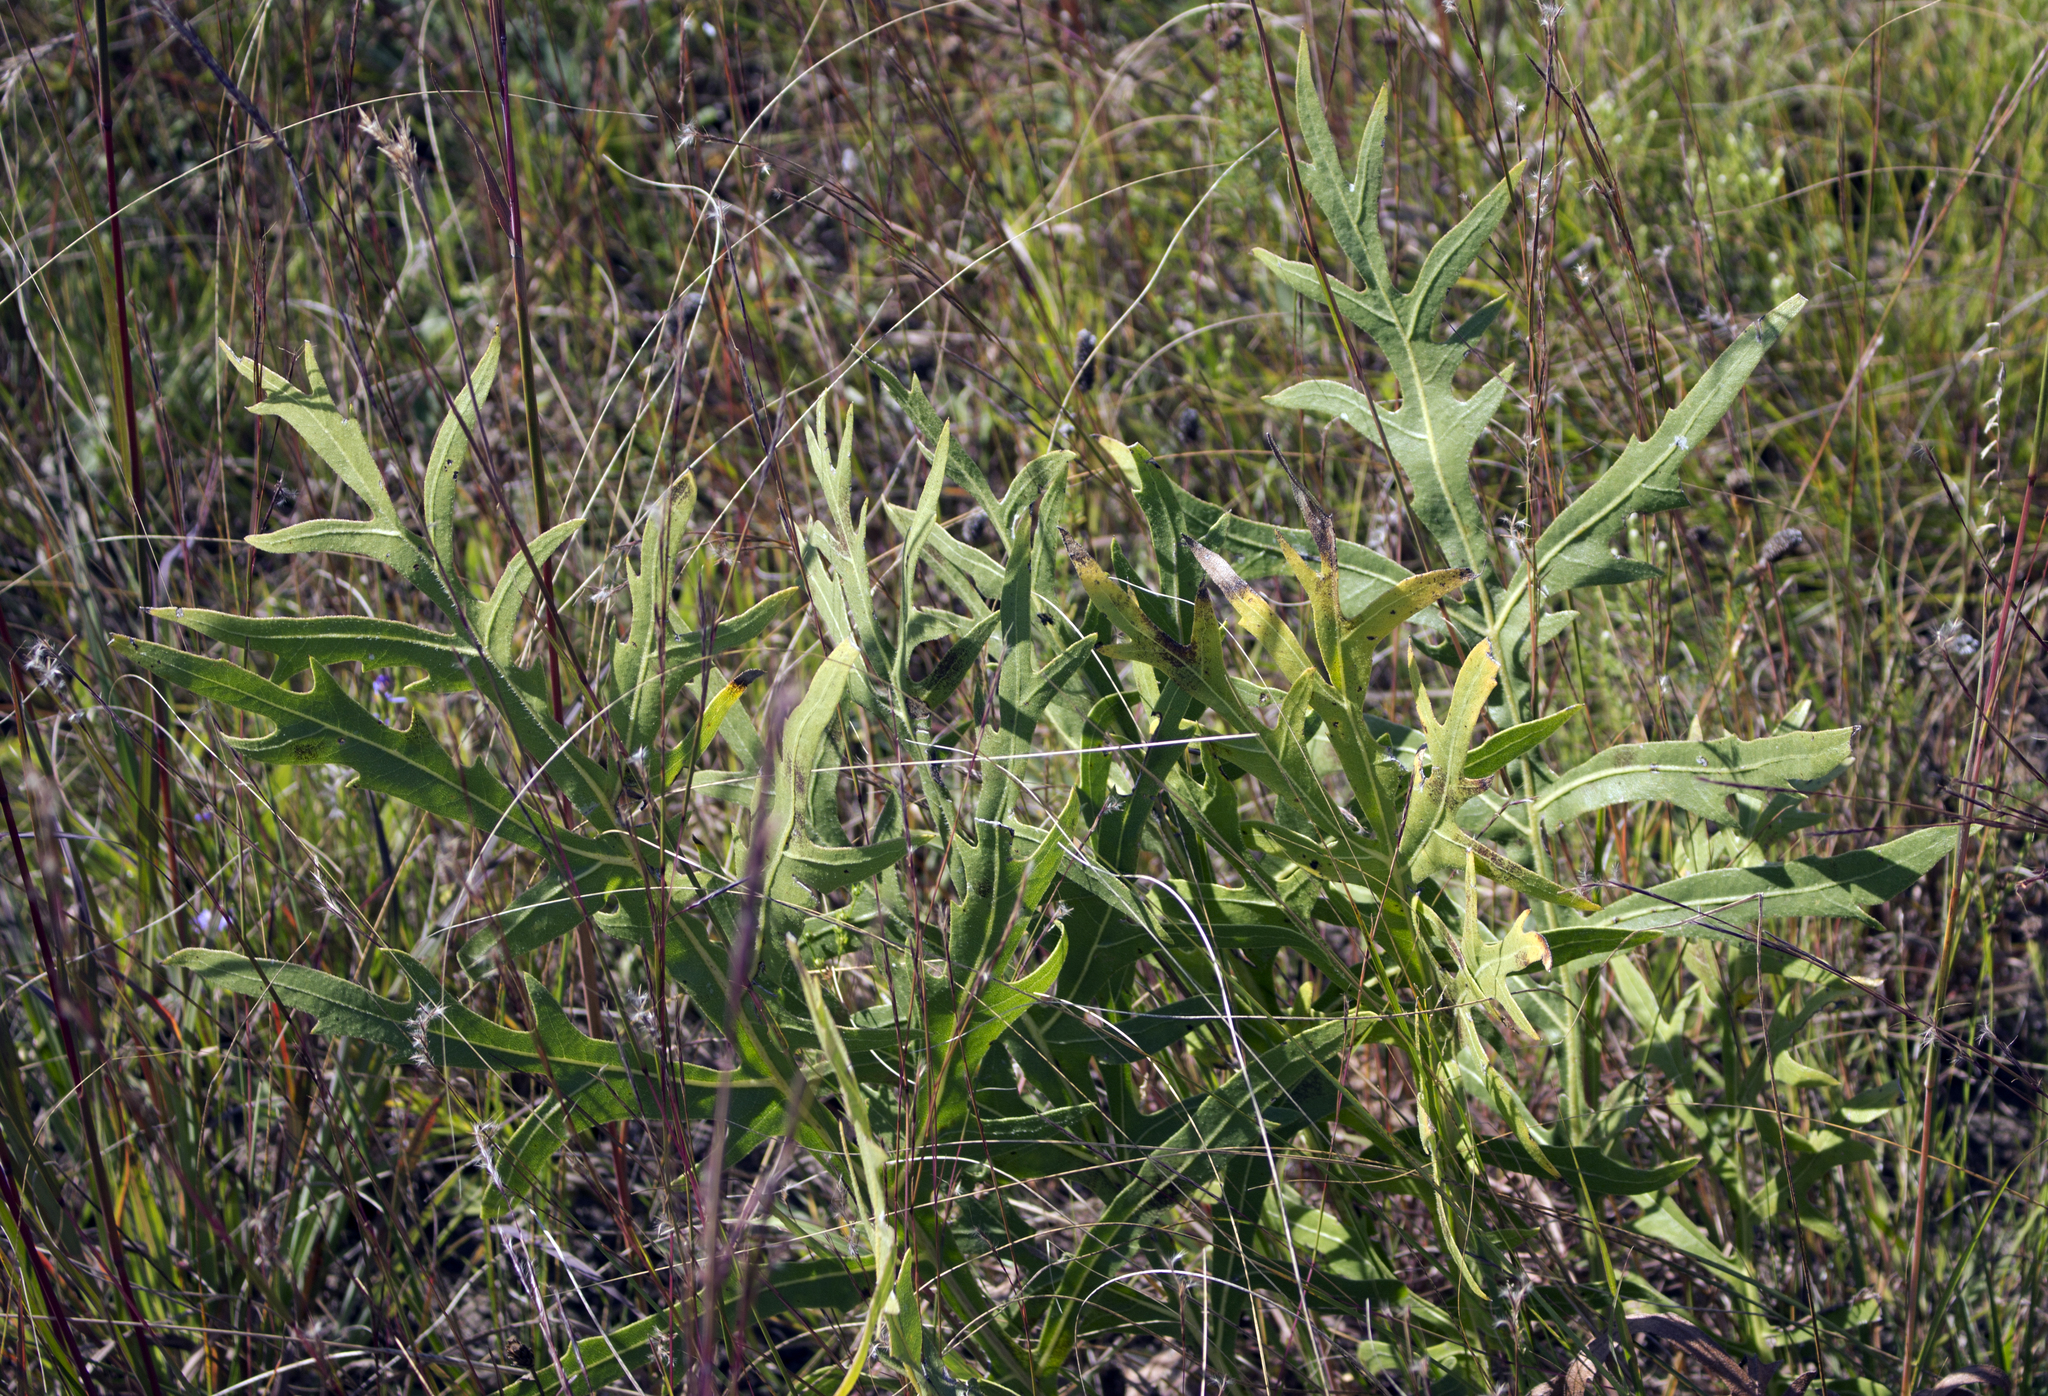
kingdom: Plantae
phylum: Tracheophyta
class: Magnoliopsida
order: Asterales
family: Asteraceae
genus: Silphium
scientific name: Silphium laciniatum
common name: Polarplant
